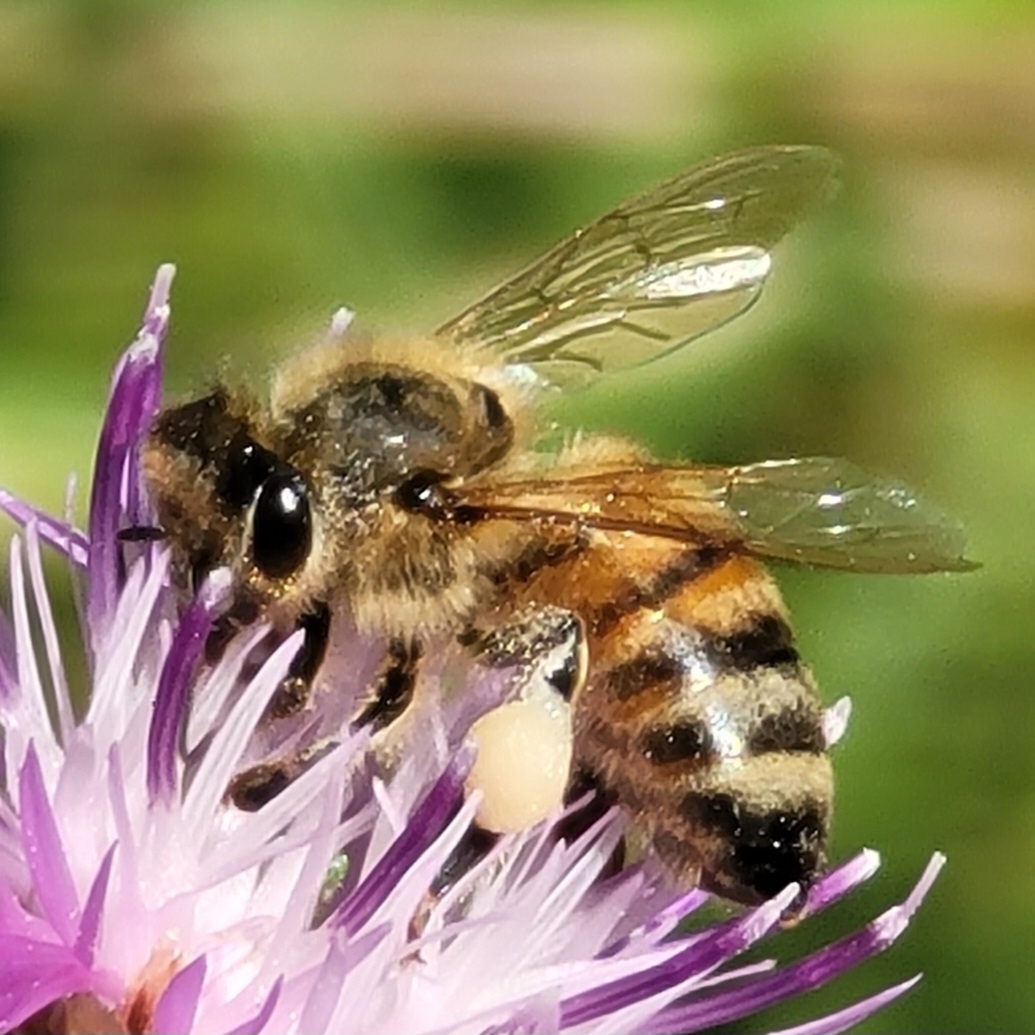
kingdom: Animalia
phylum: Arthropoda
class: Insecta
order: Hymenoptera
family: Apidae
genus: Apis
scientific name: Apis mellifera
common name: Honey bee
